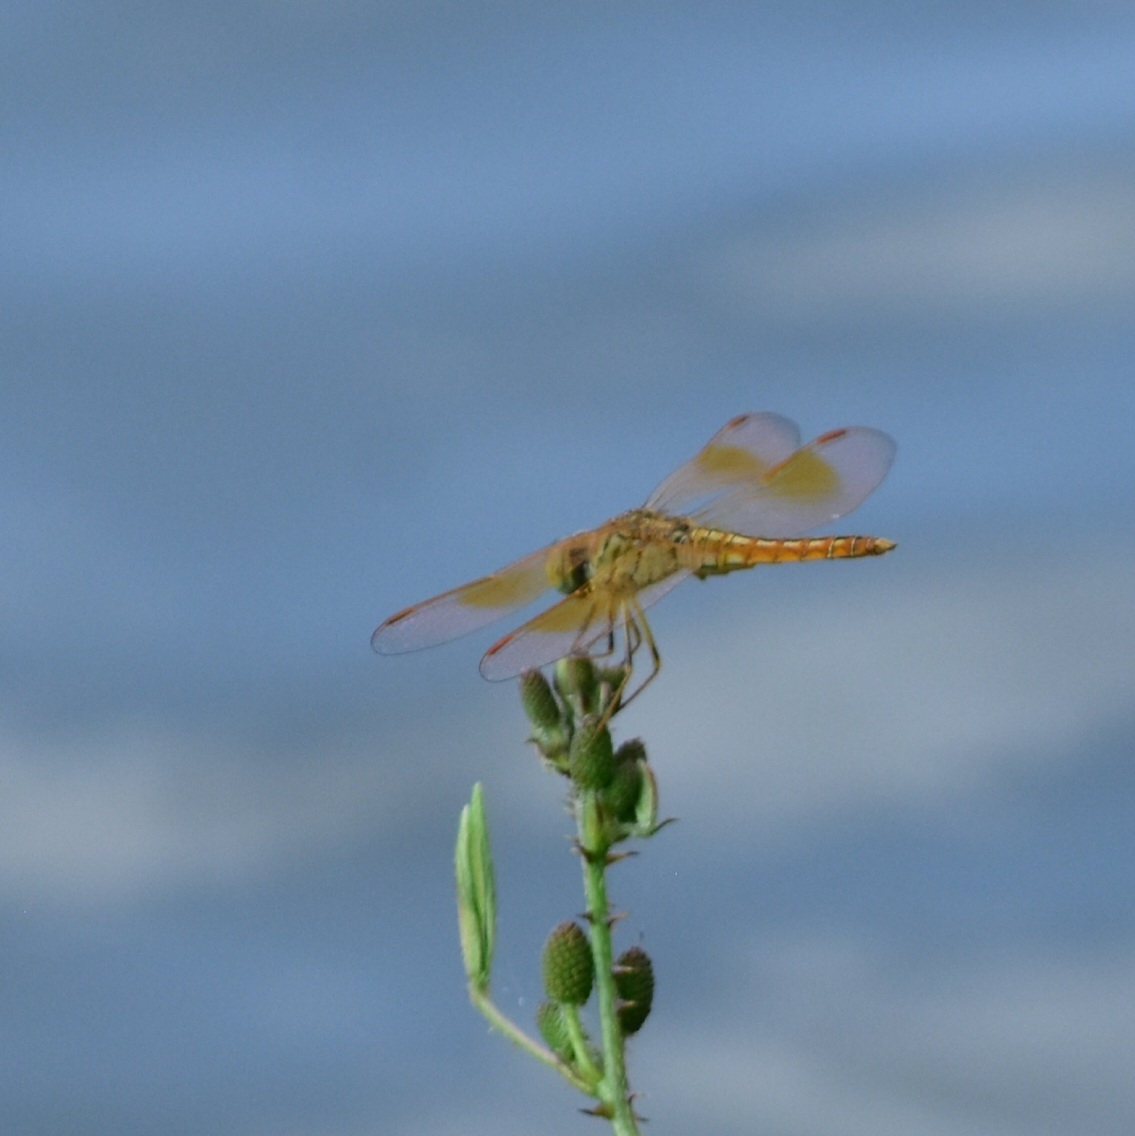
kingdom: Animalia
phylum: Arthropoda
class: Insecta
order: Odonata
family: Libellulidae
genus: Brachythemis
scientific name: Brachythemis contaminata
